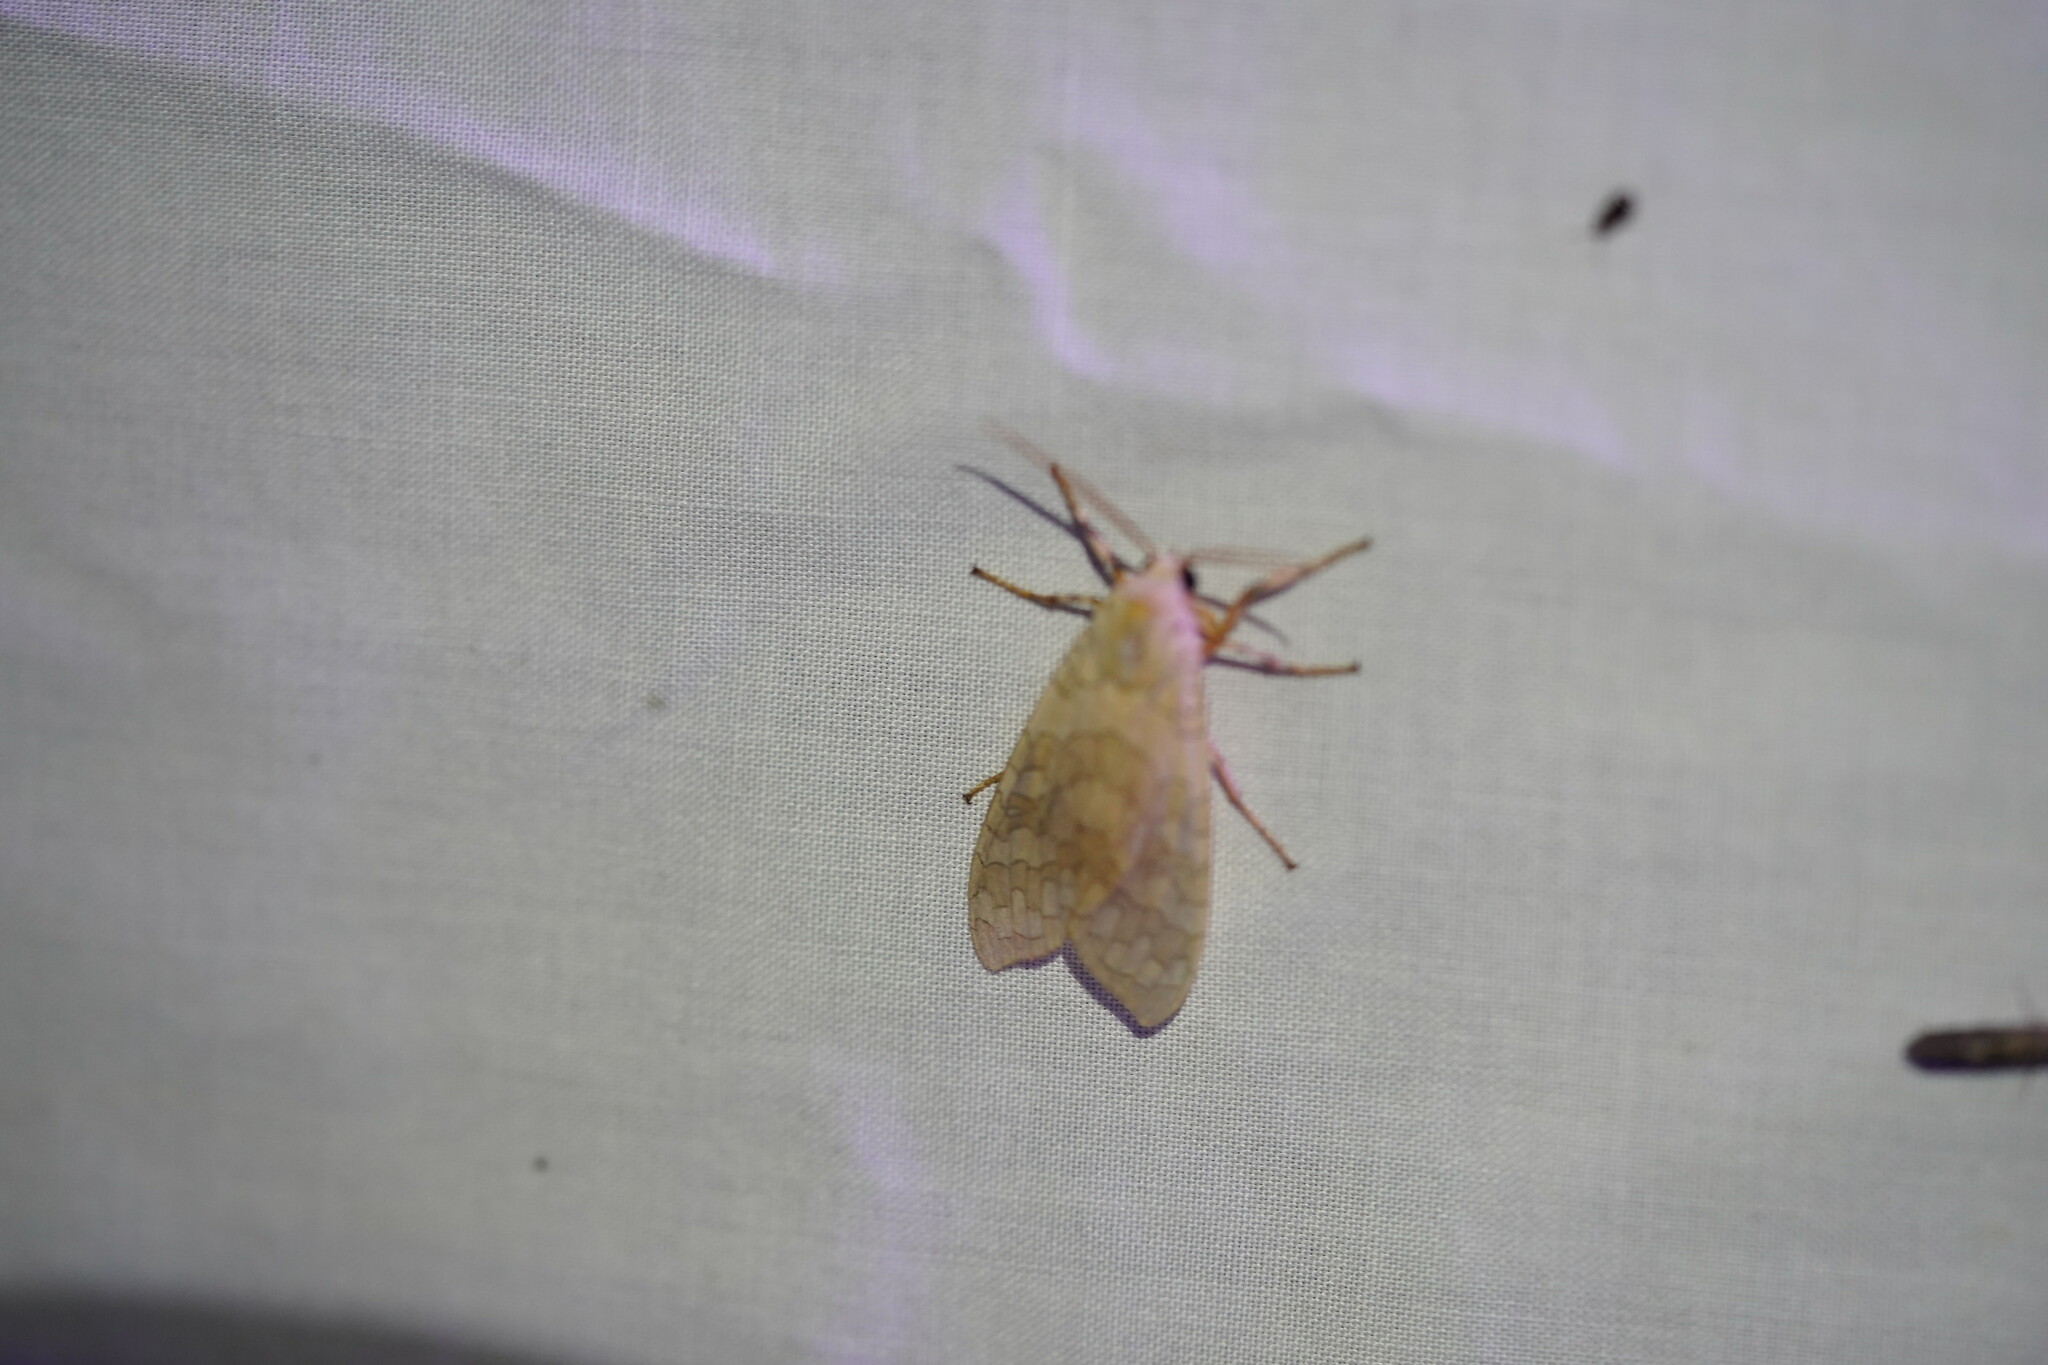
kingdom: Animalia
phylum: Arthropoda
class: Insecta
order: Lepidoptera
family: Erebidae
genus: Halysidota
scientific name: Halysidota
